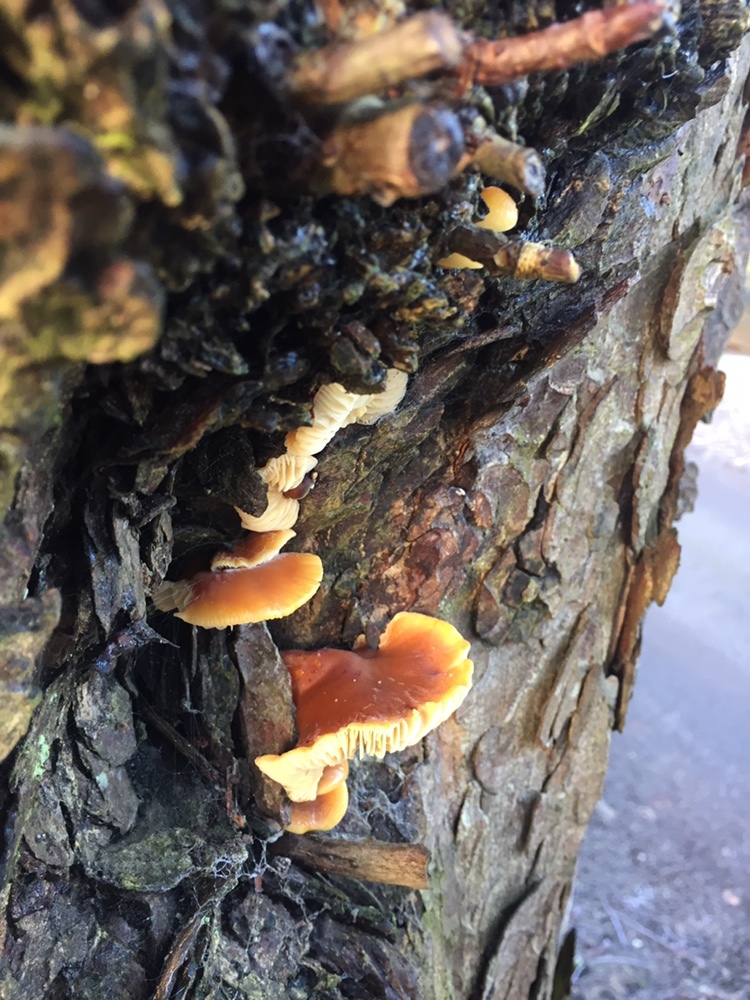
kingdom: Fungi
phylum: Basidiomycota
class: Agaricomycetes
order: Agaricales
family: Physalacriaceae
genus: Flammulina
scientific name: Flammulina
